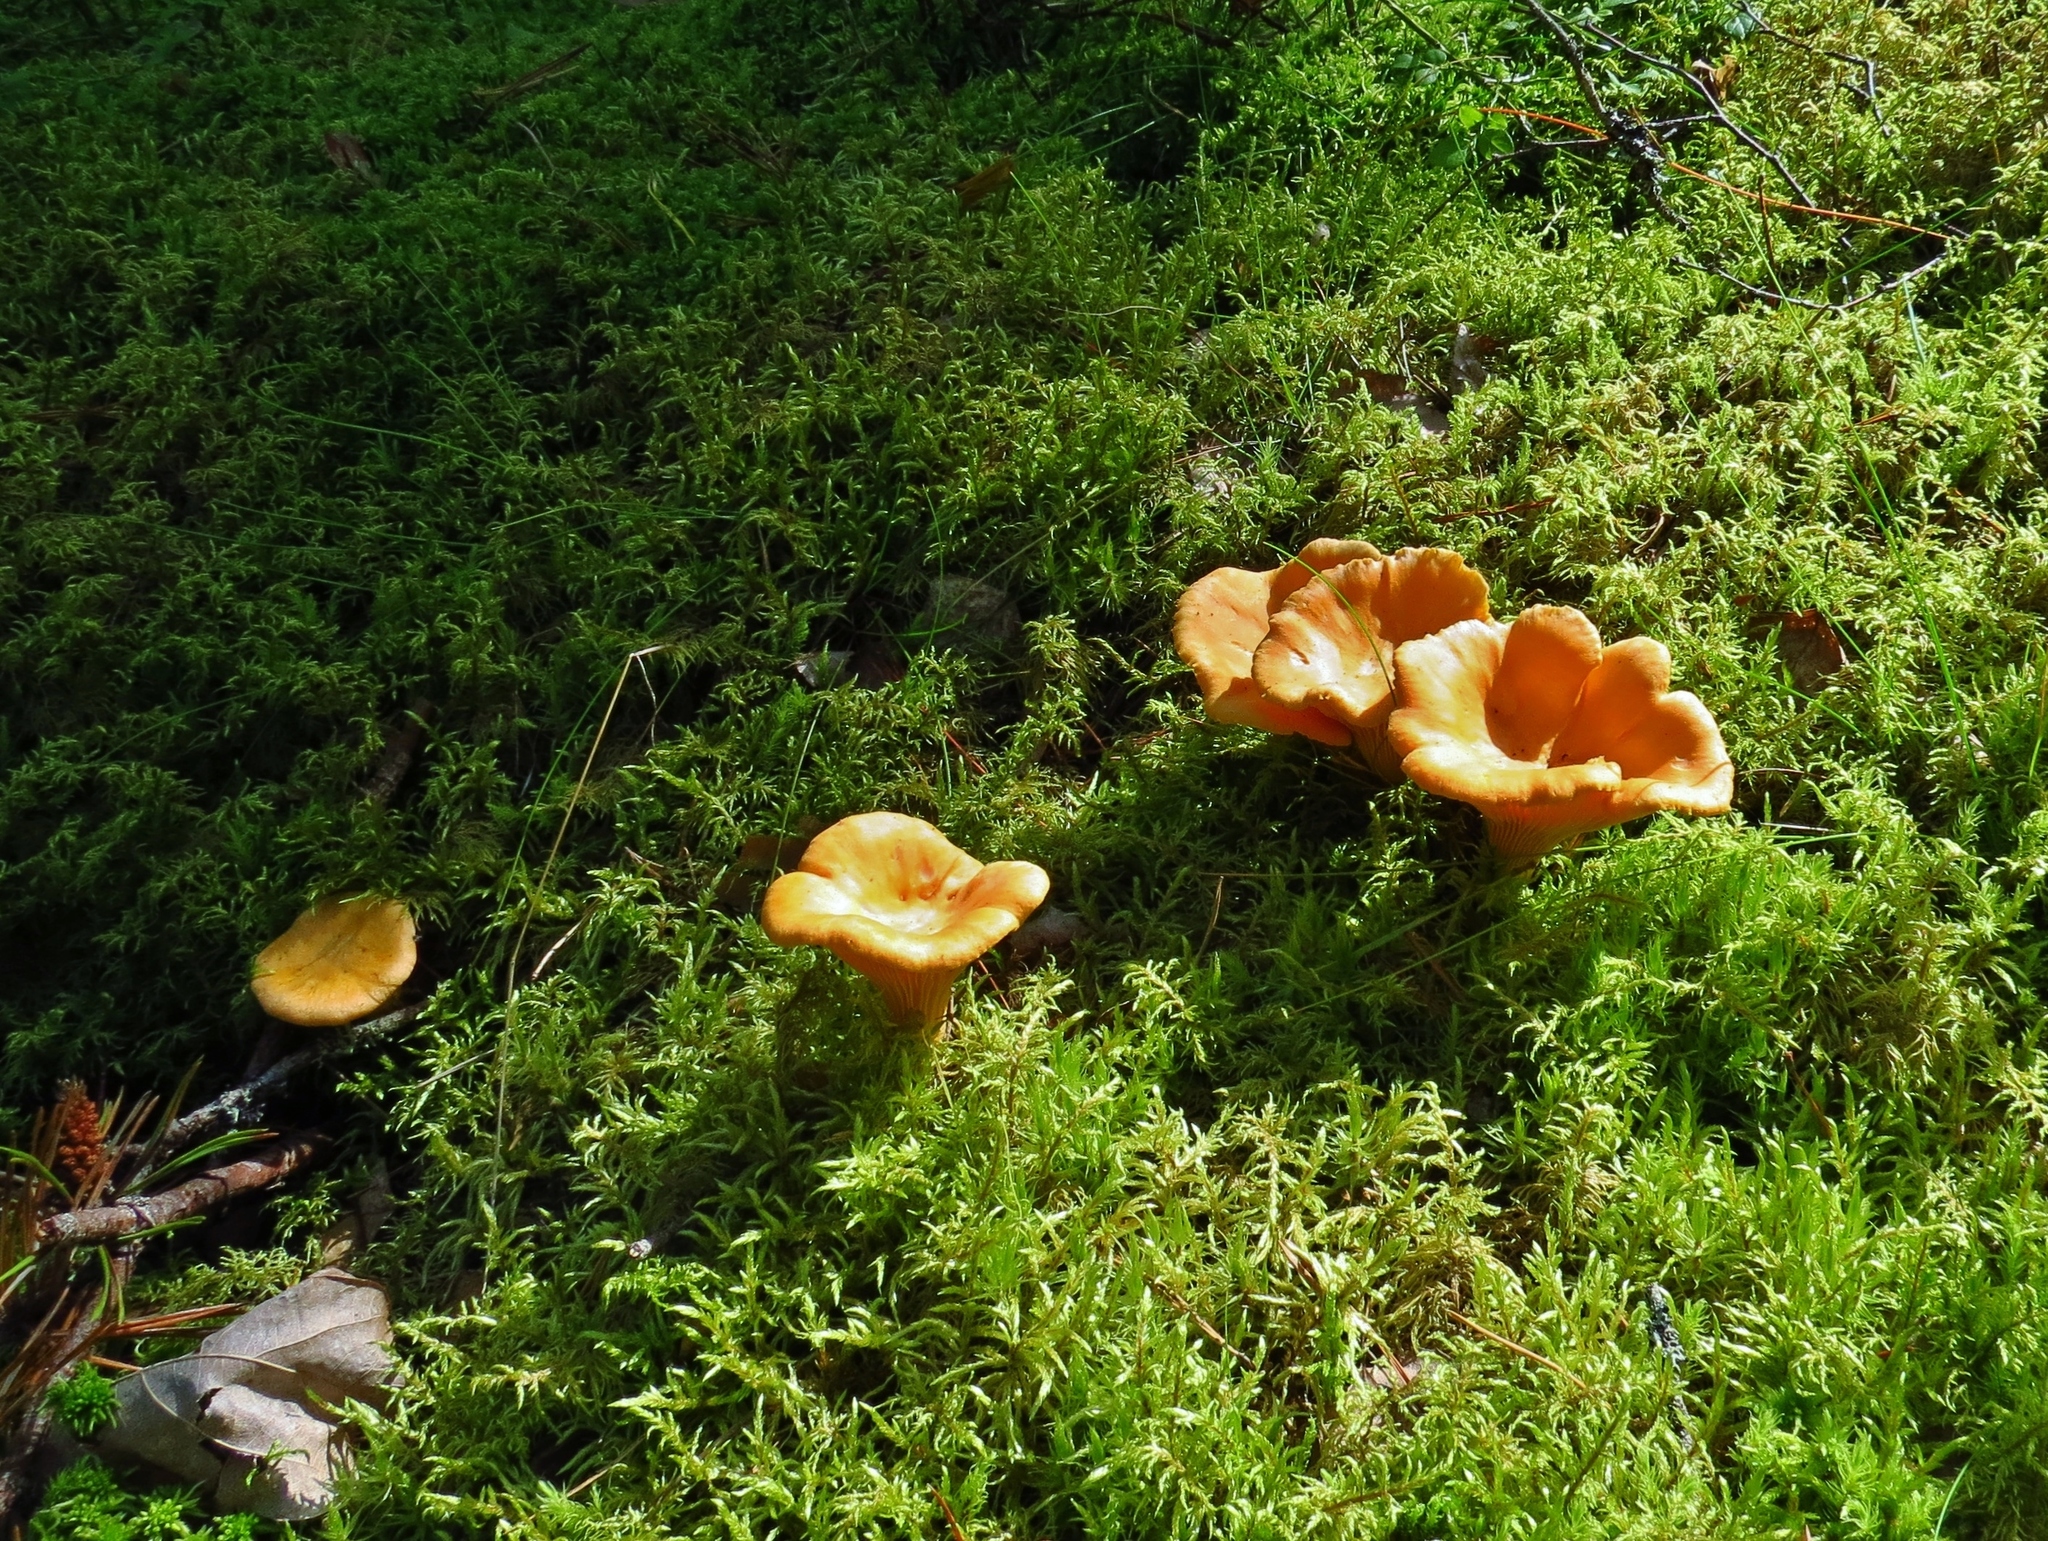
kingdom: Fungi
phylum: Basidiomycota
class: Agaricomycetes
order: Cantharellales
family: Hydnaceae
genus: Cantharellus
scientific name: Cantharellus cibarius
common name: Chanterelle
